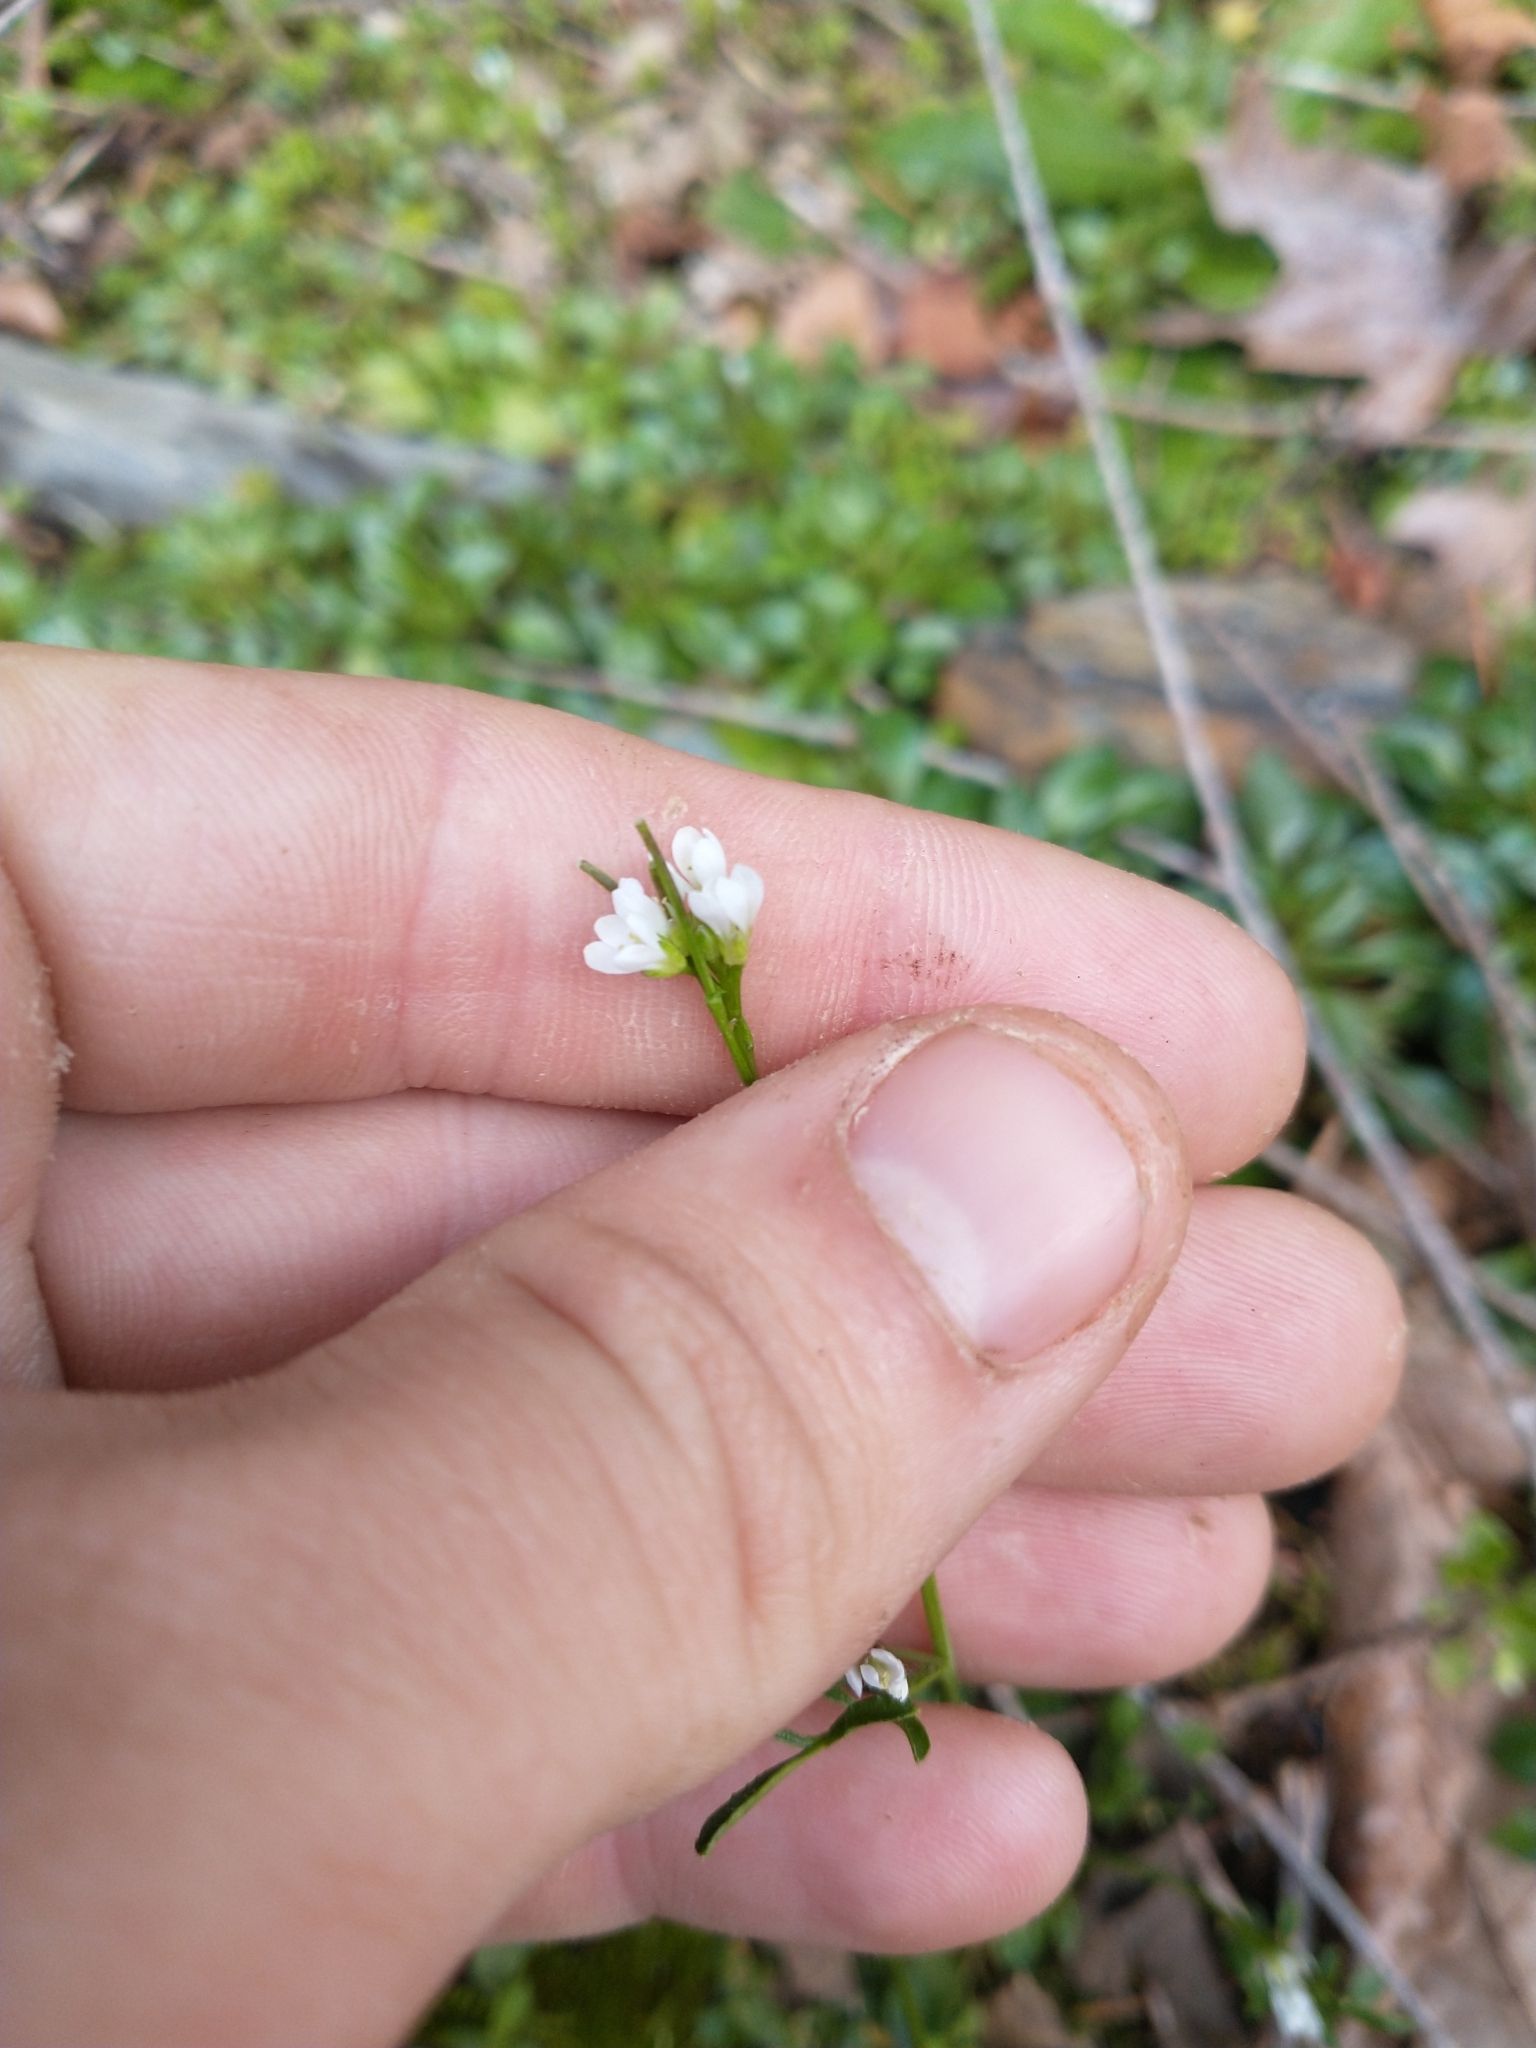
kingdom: Plantae
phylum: Tracheophyta
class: Magnoliopsida
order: Brassicales
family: Brassicaceae
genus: Cardamine
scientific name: Cardamine hirsuta
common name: Hairy bittercress
